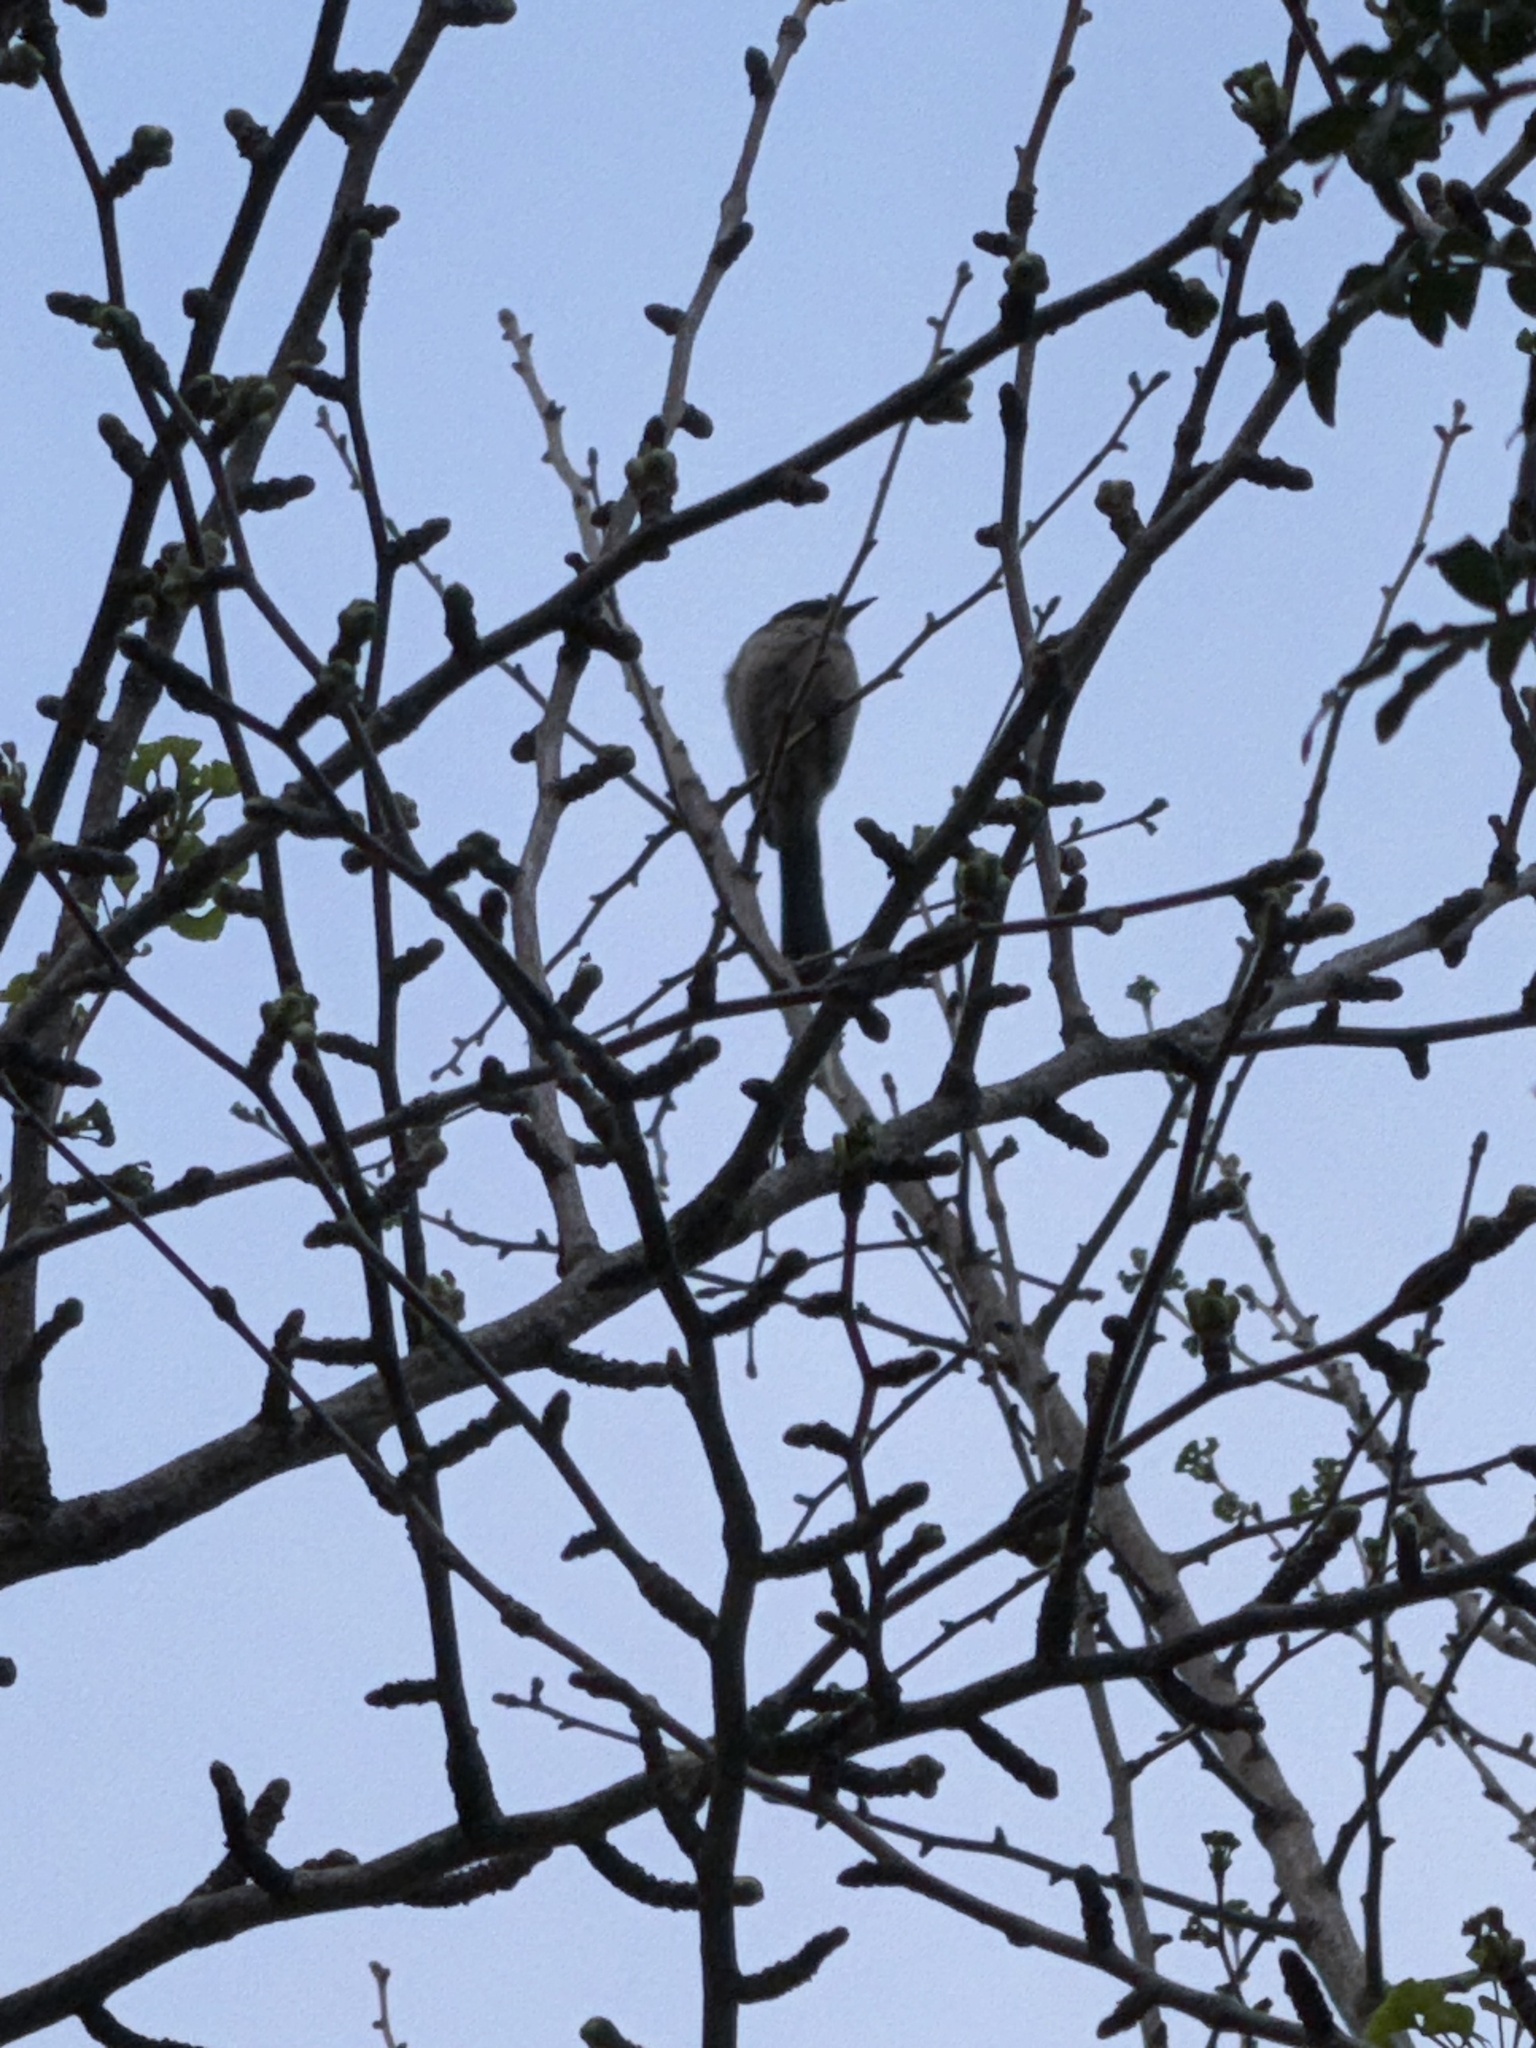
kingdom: Animalia
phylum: Chordata
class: Aves
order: Passeriformes
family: Corvidae
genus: Aphelocoma
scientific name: Aphelocoma californica
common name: California scrub-jay
